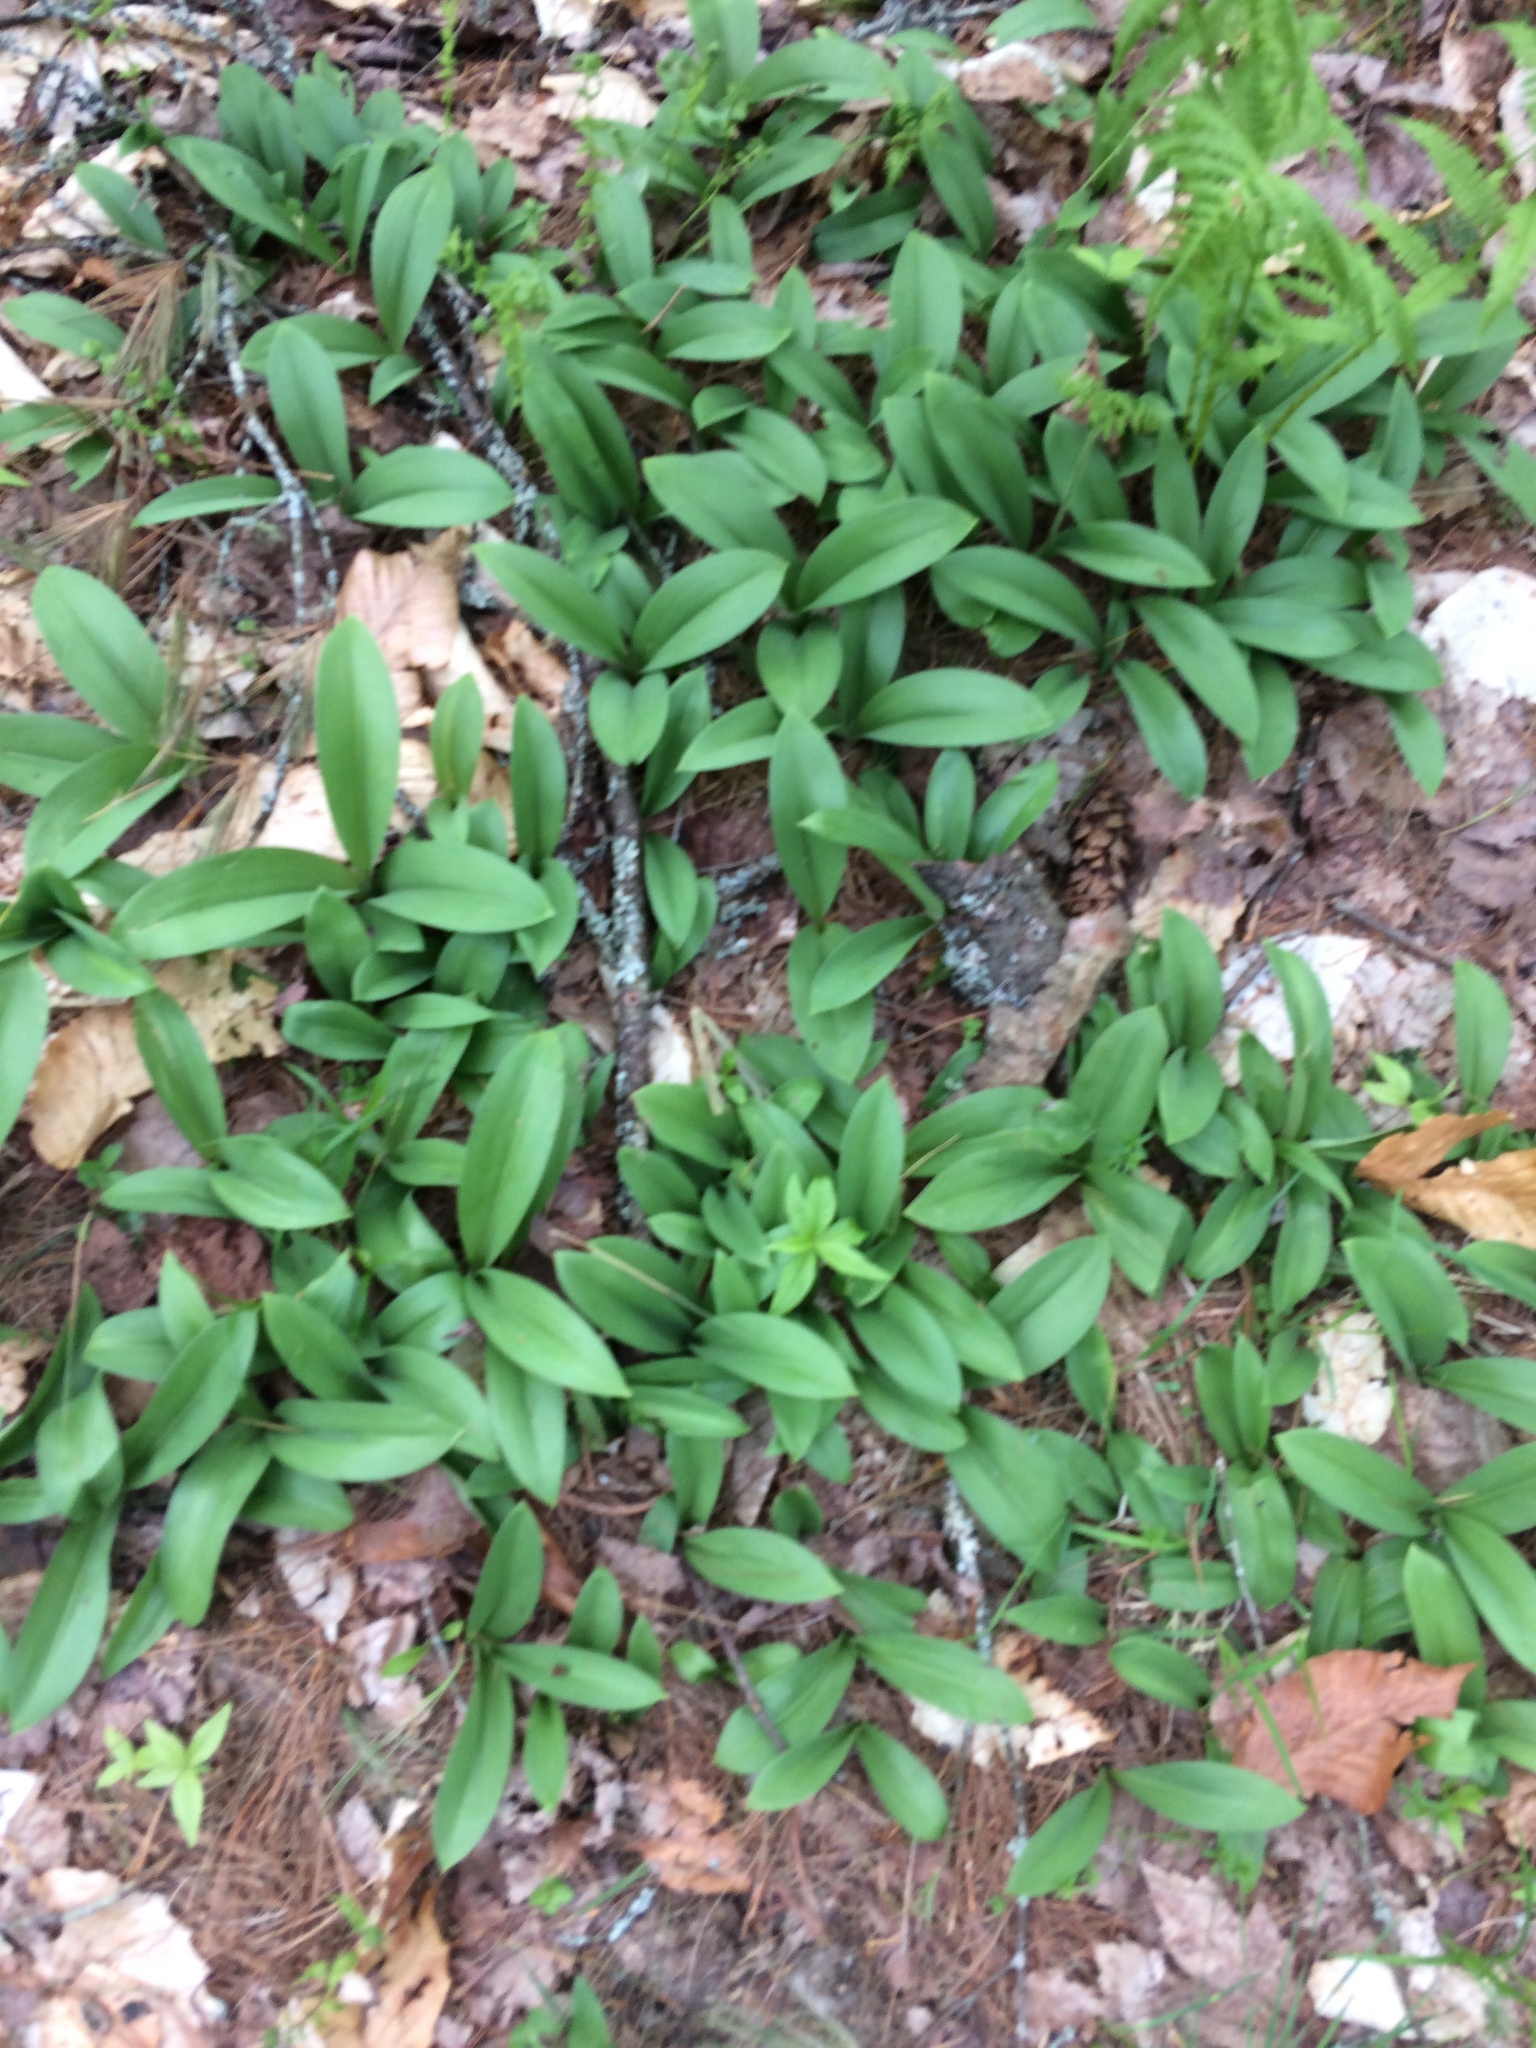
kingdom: Plantae
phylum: Tracheophyta
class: Liliopsida
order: Liliales
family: Liliaceae
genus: Clintonia
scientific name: Clintonia borealis
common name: Yellow clintonia
